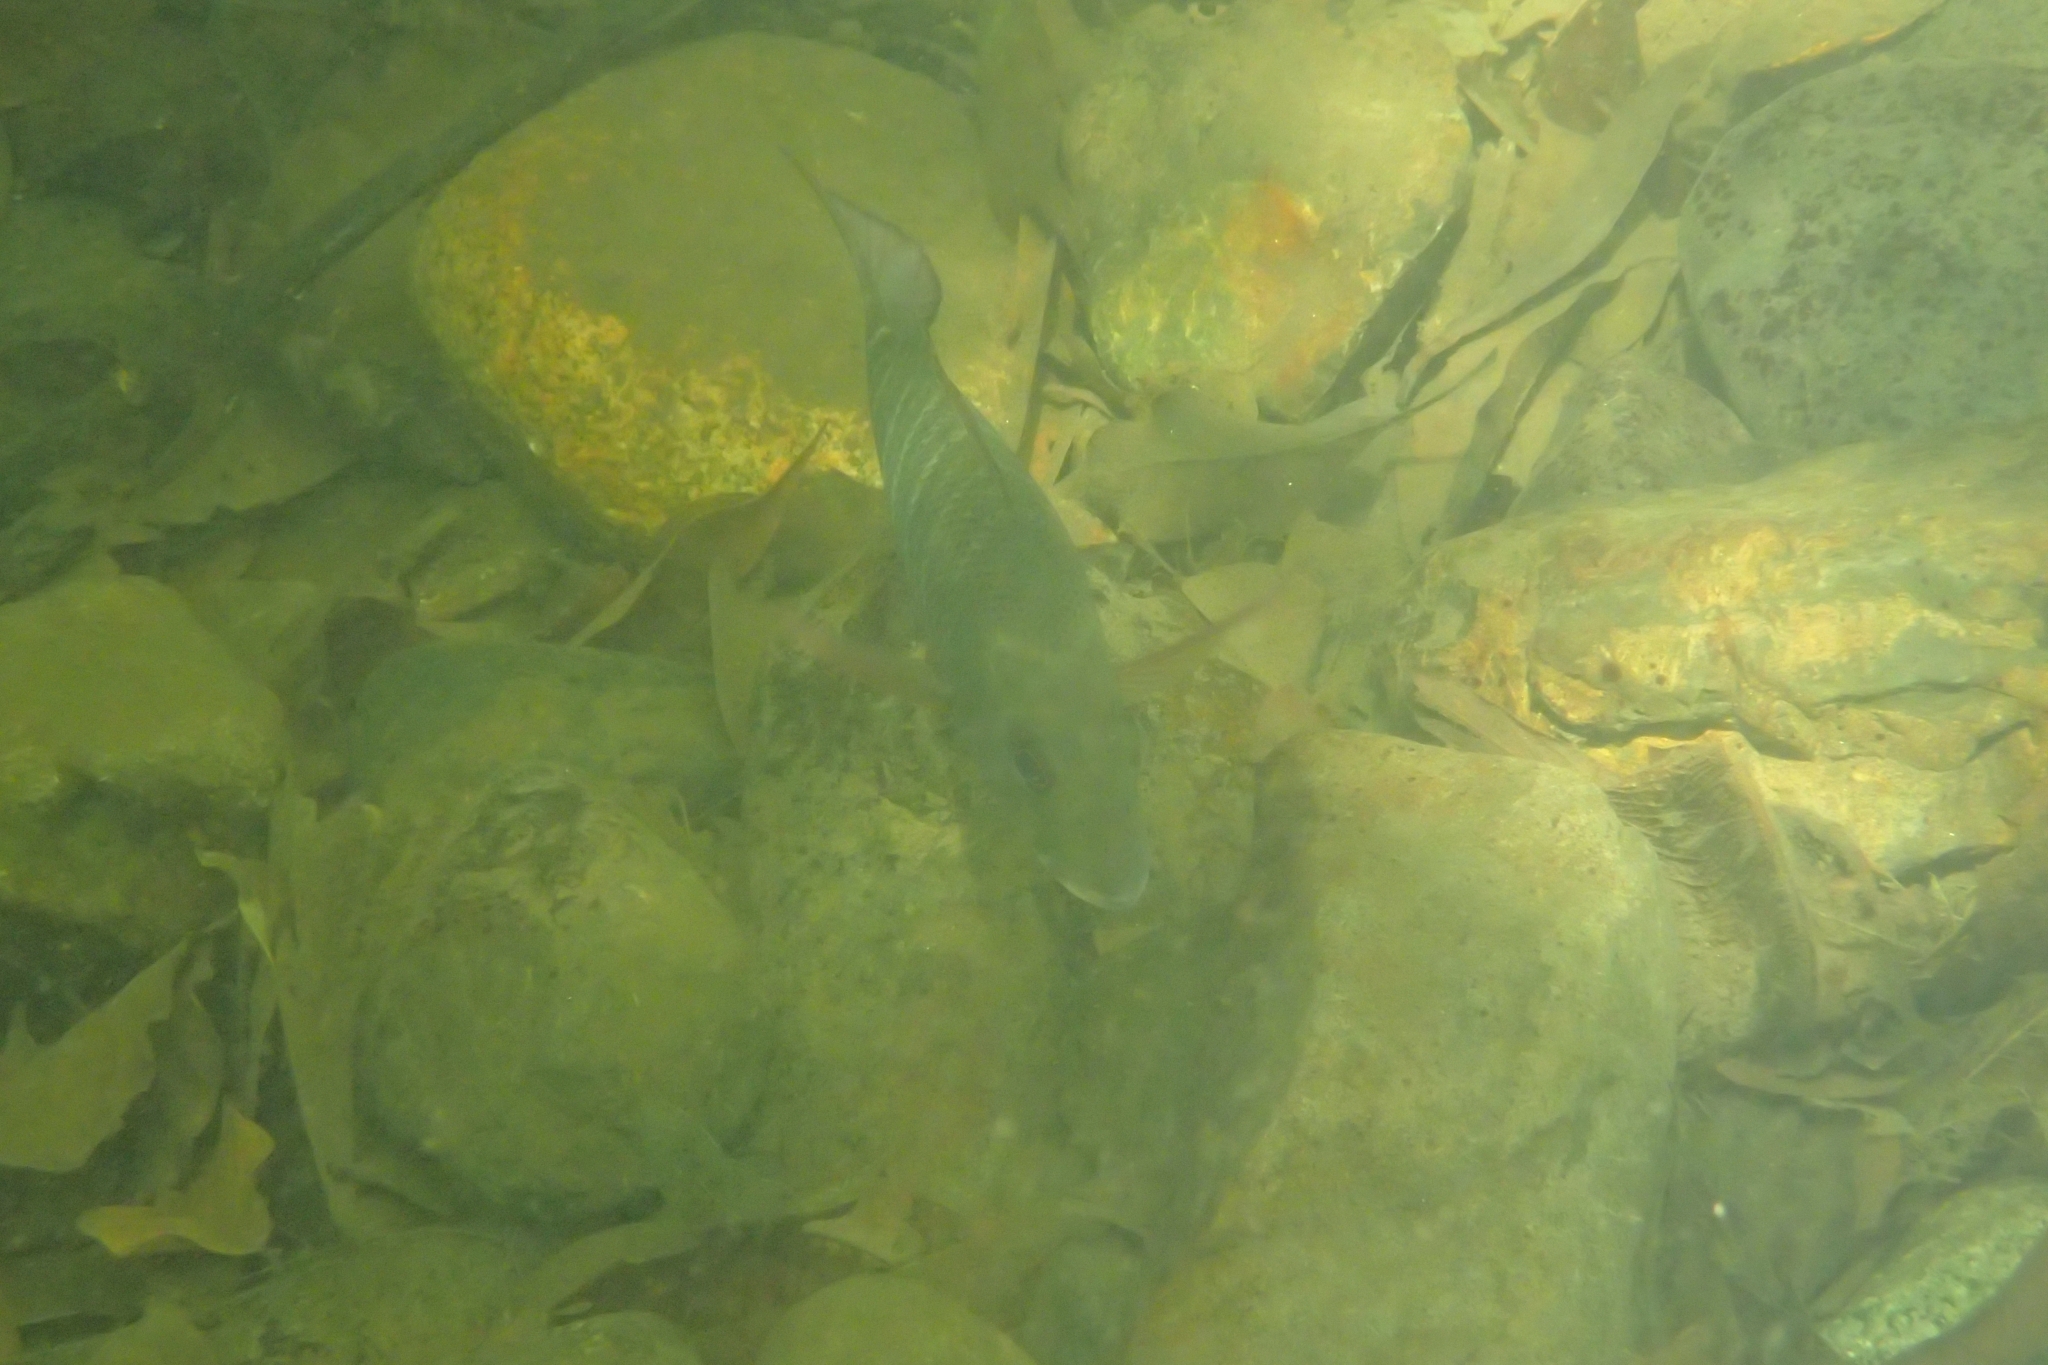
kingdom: Animalia
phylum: Chordata
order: Perciformes
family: Lutjanidae
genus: Lutjanus
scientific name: Lutjanus argentimaculatus
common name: Mangrove red snapper
